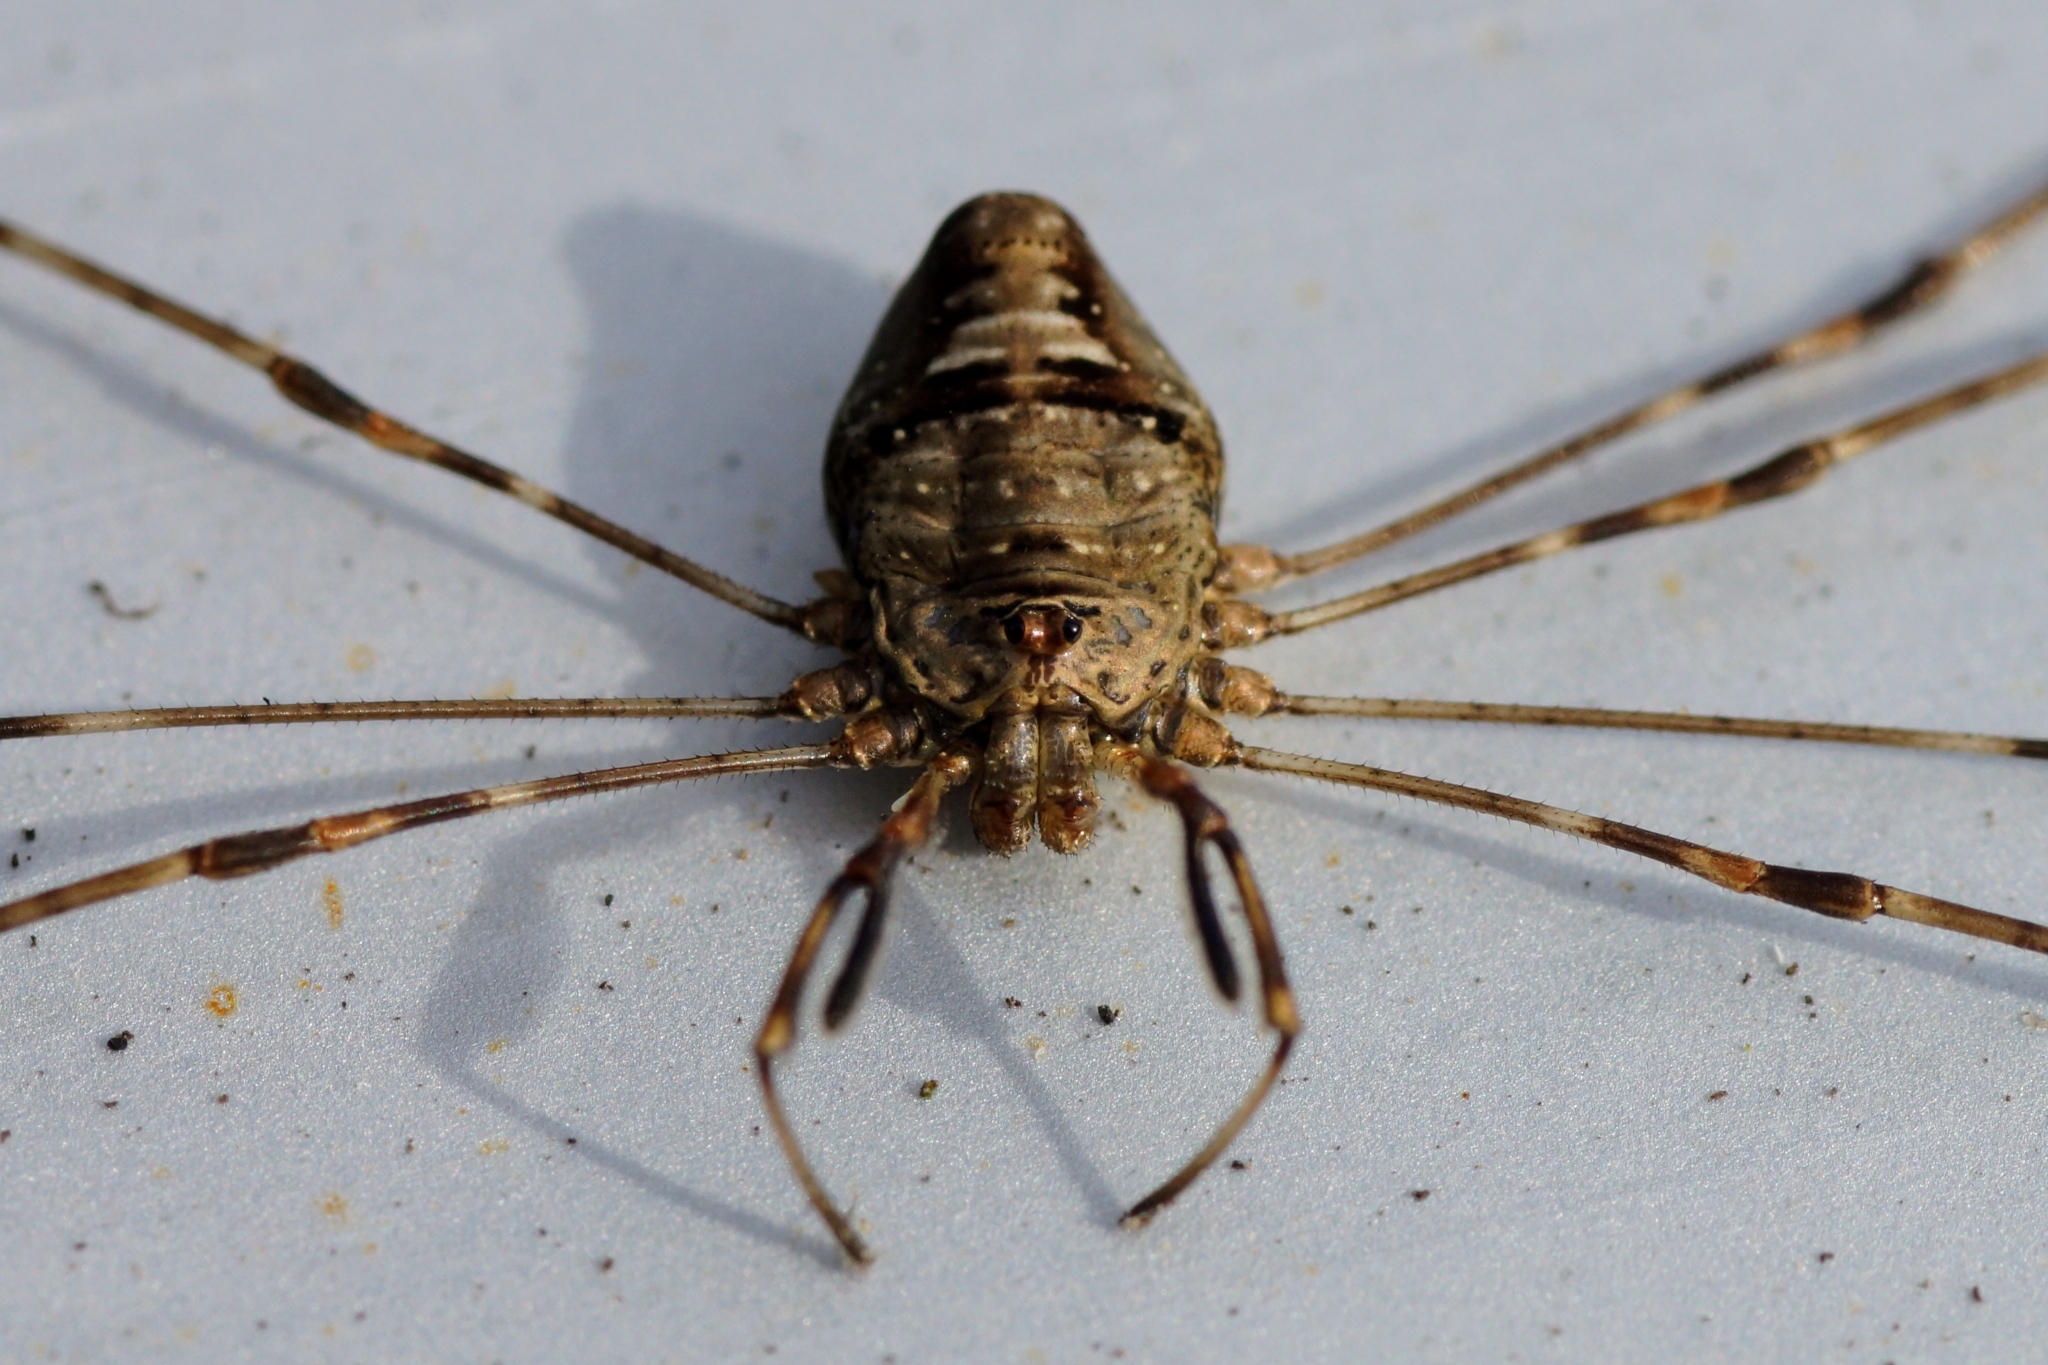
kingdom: Animalia
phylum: Arthropoda
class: Arachnida
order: Opiliones
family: Phalangiidae
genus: Dicranopalpus
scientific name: Dicranopalpus ramosus
